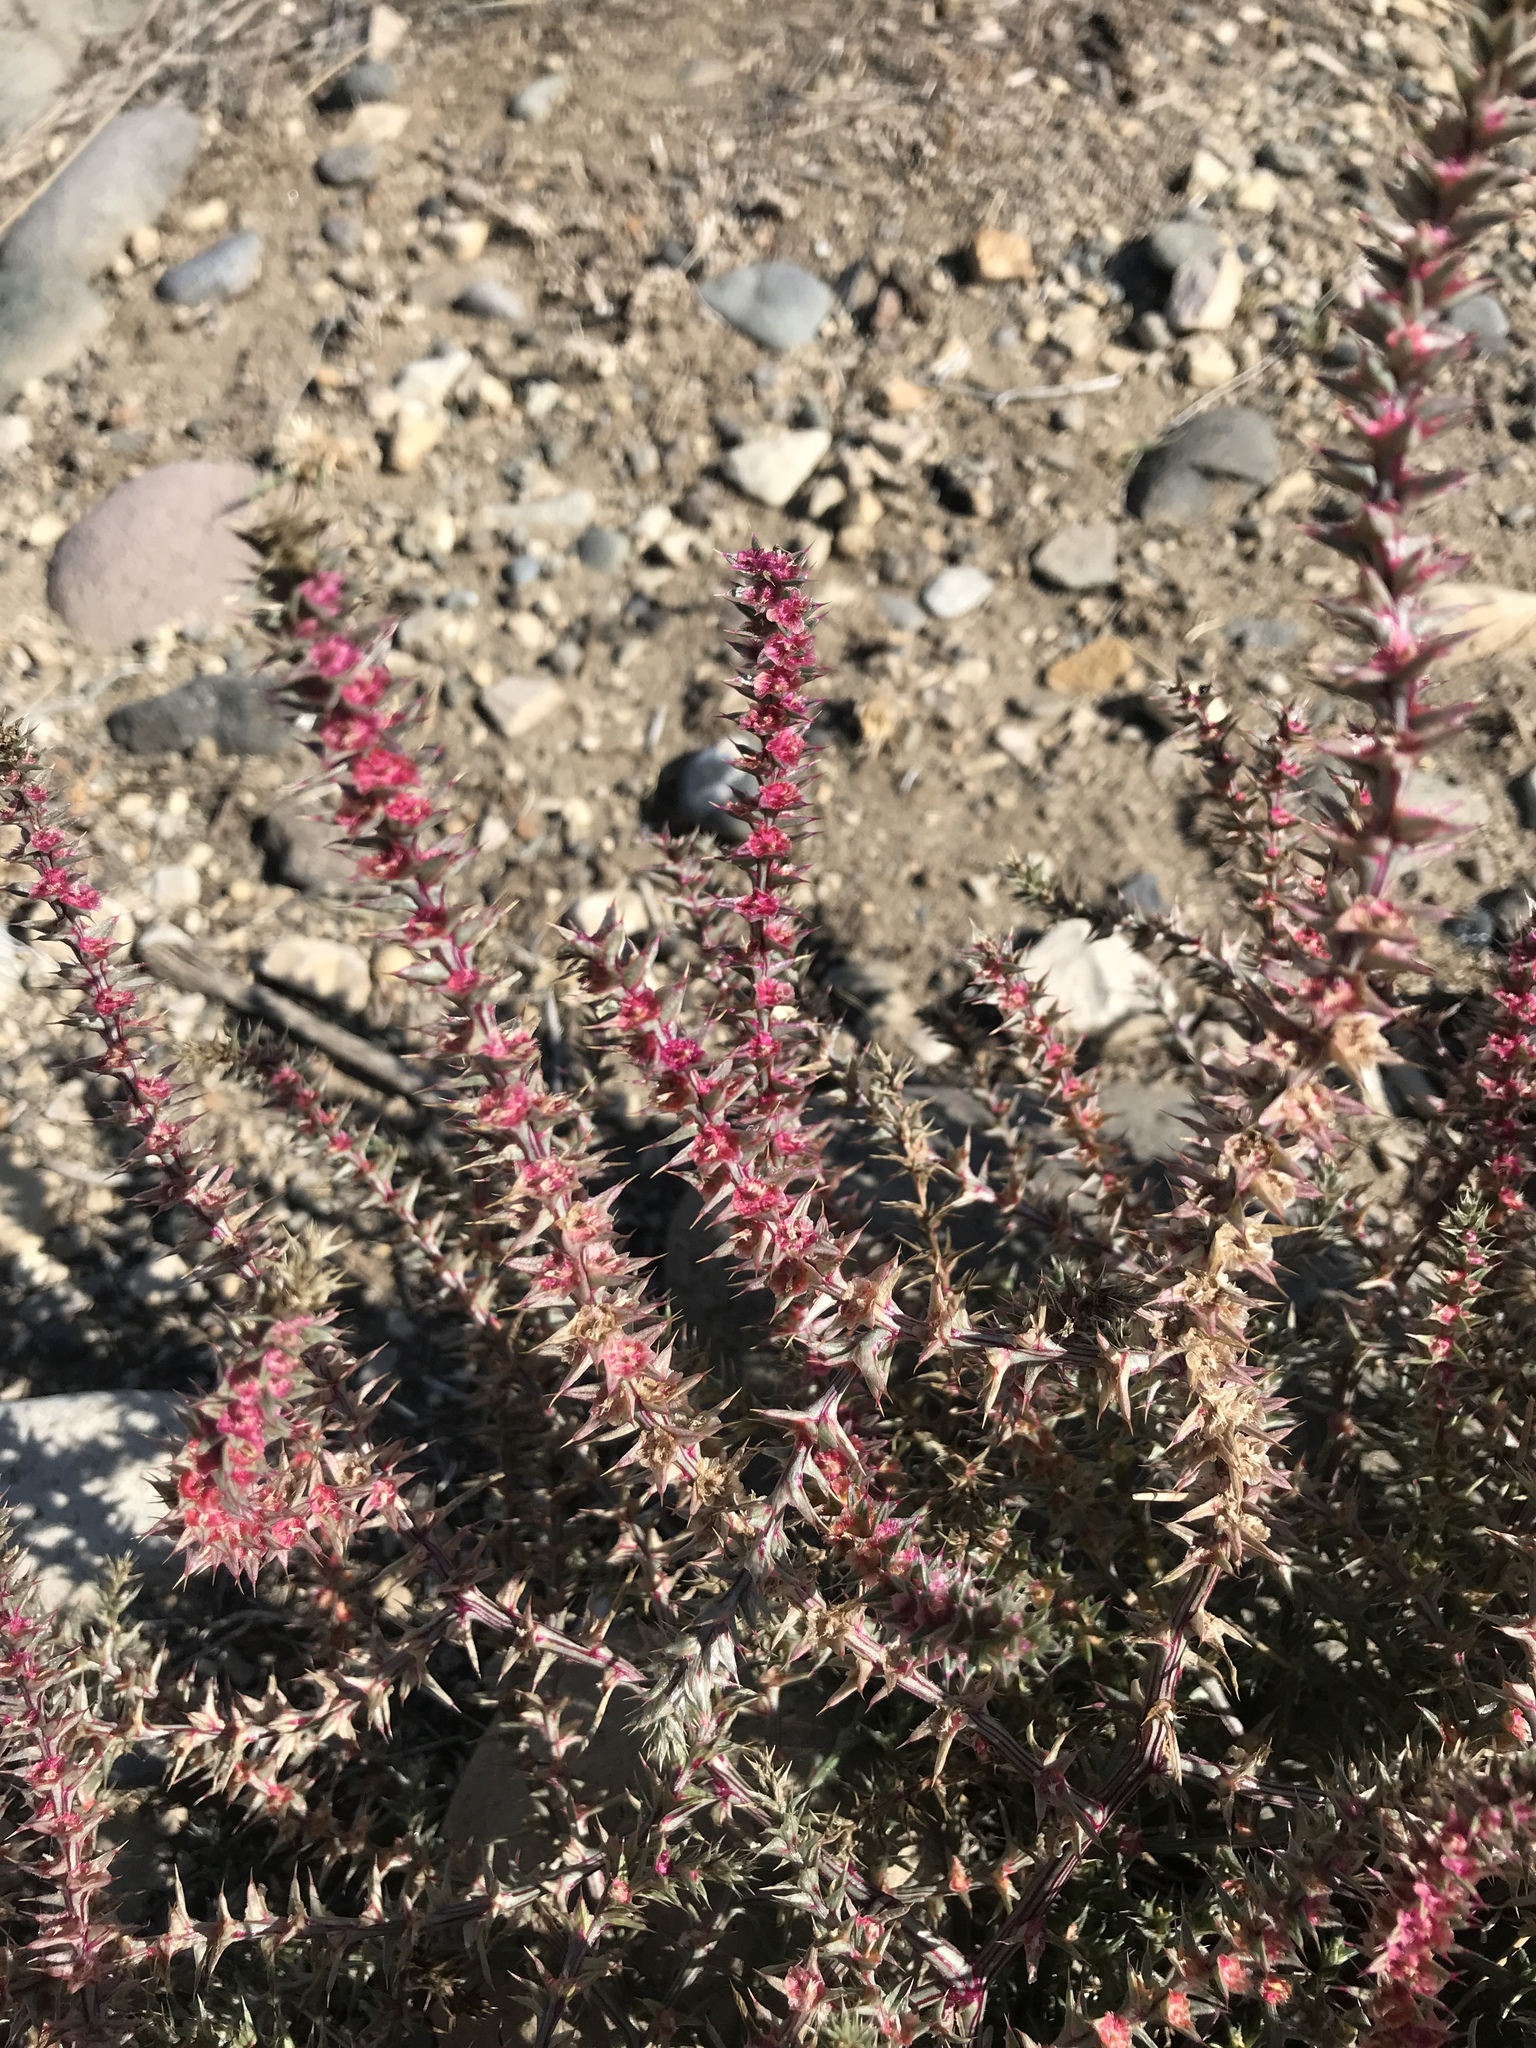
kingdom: Plantae
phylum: Tracheophyta
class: Magnoliopsida
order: Caryophyllales
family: Amaranthaceae
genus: Salsola
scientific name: Salsola tragus
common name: Prickly russian thistle
